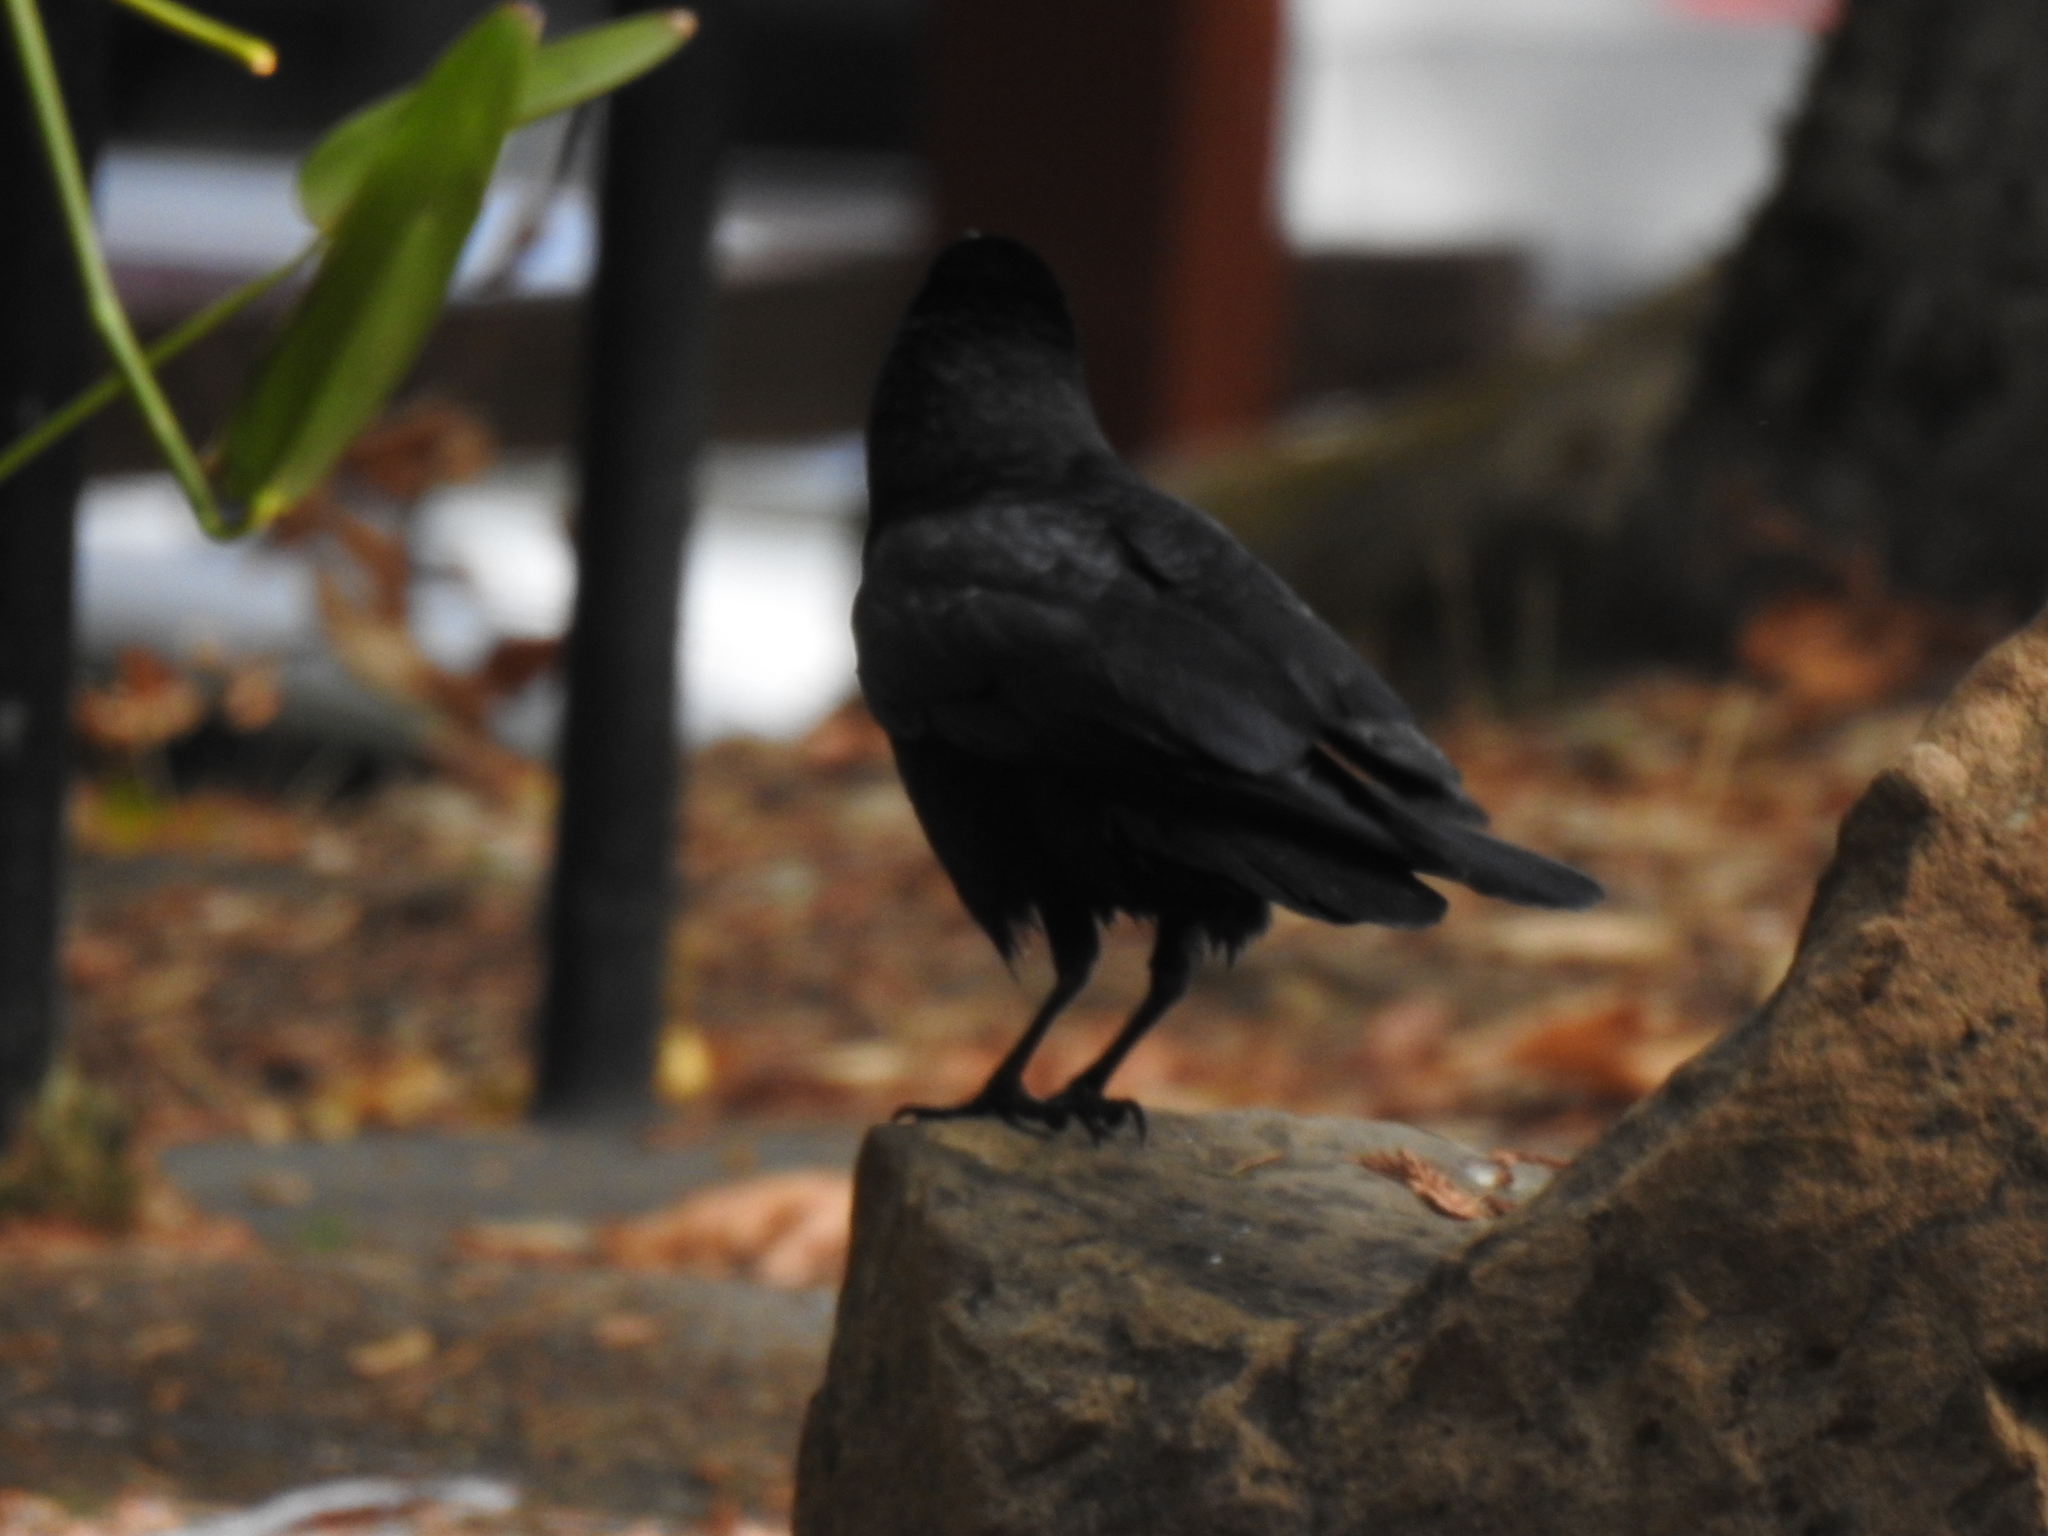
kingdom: Animalia
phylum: Chordata
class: Aves
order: Passeriformes
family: Corvidae
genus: Corvus
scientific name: Corvus brachyrhynchos
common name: American crow
